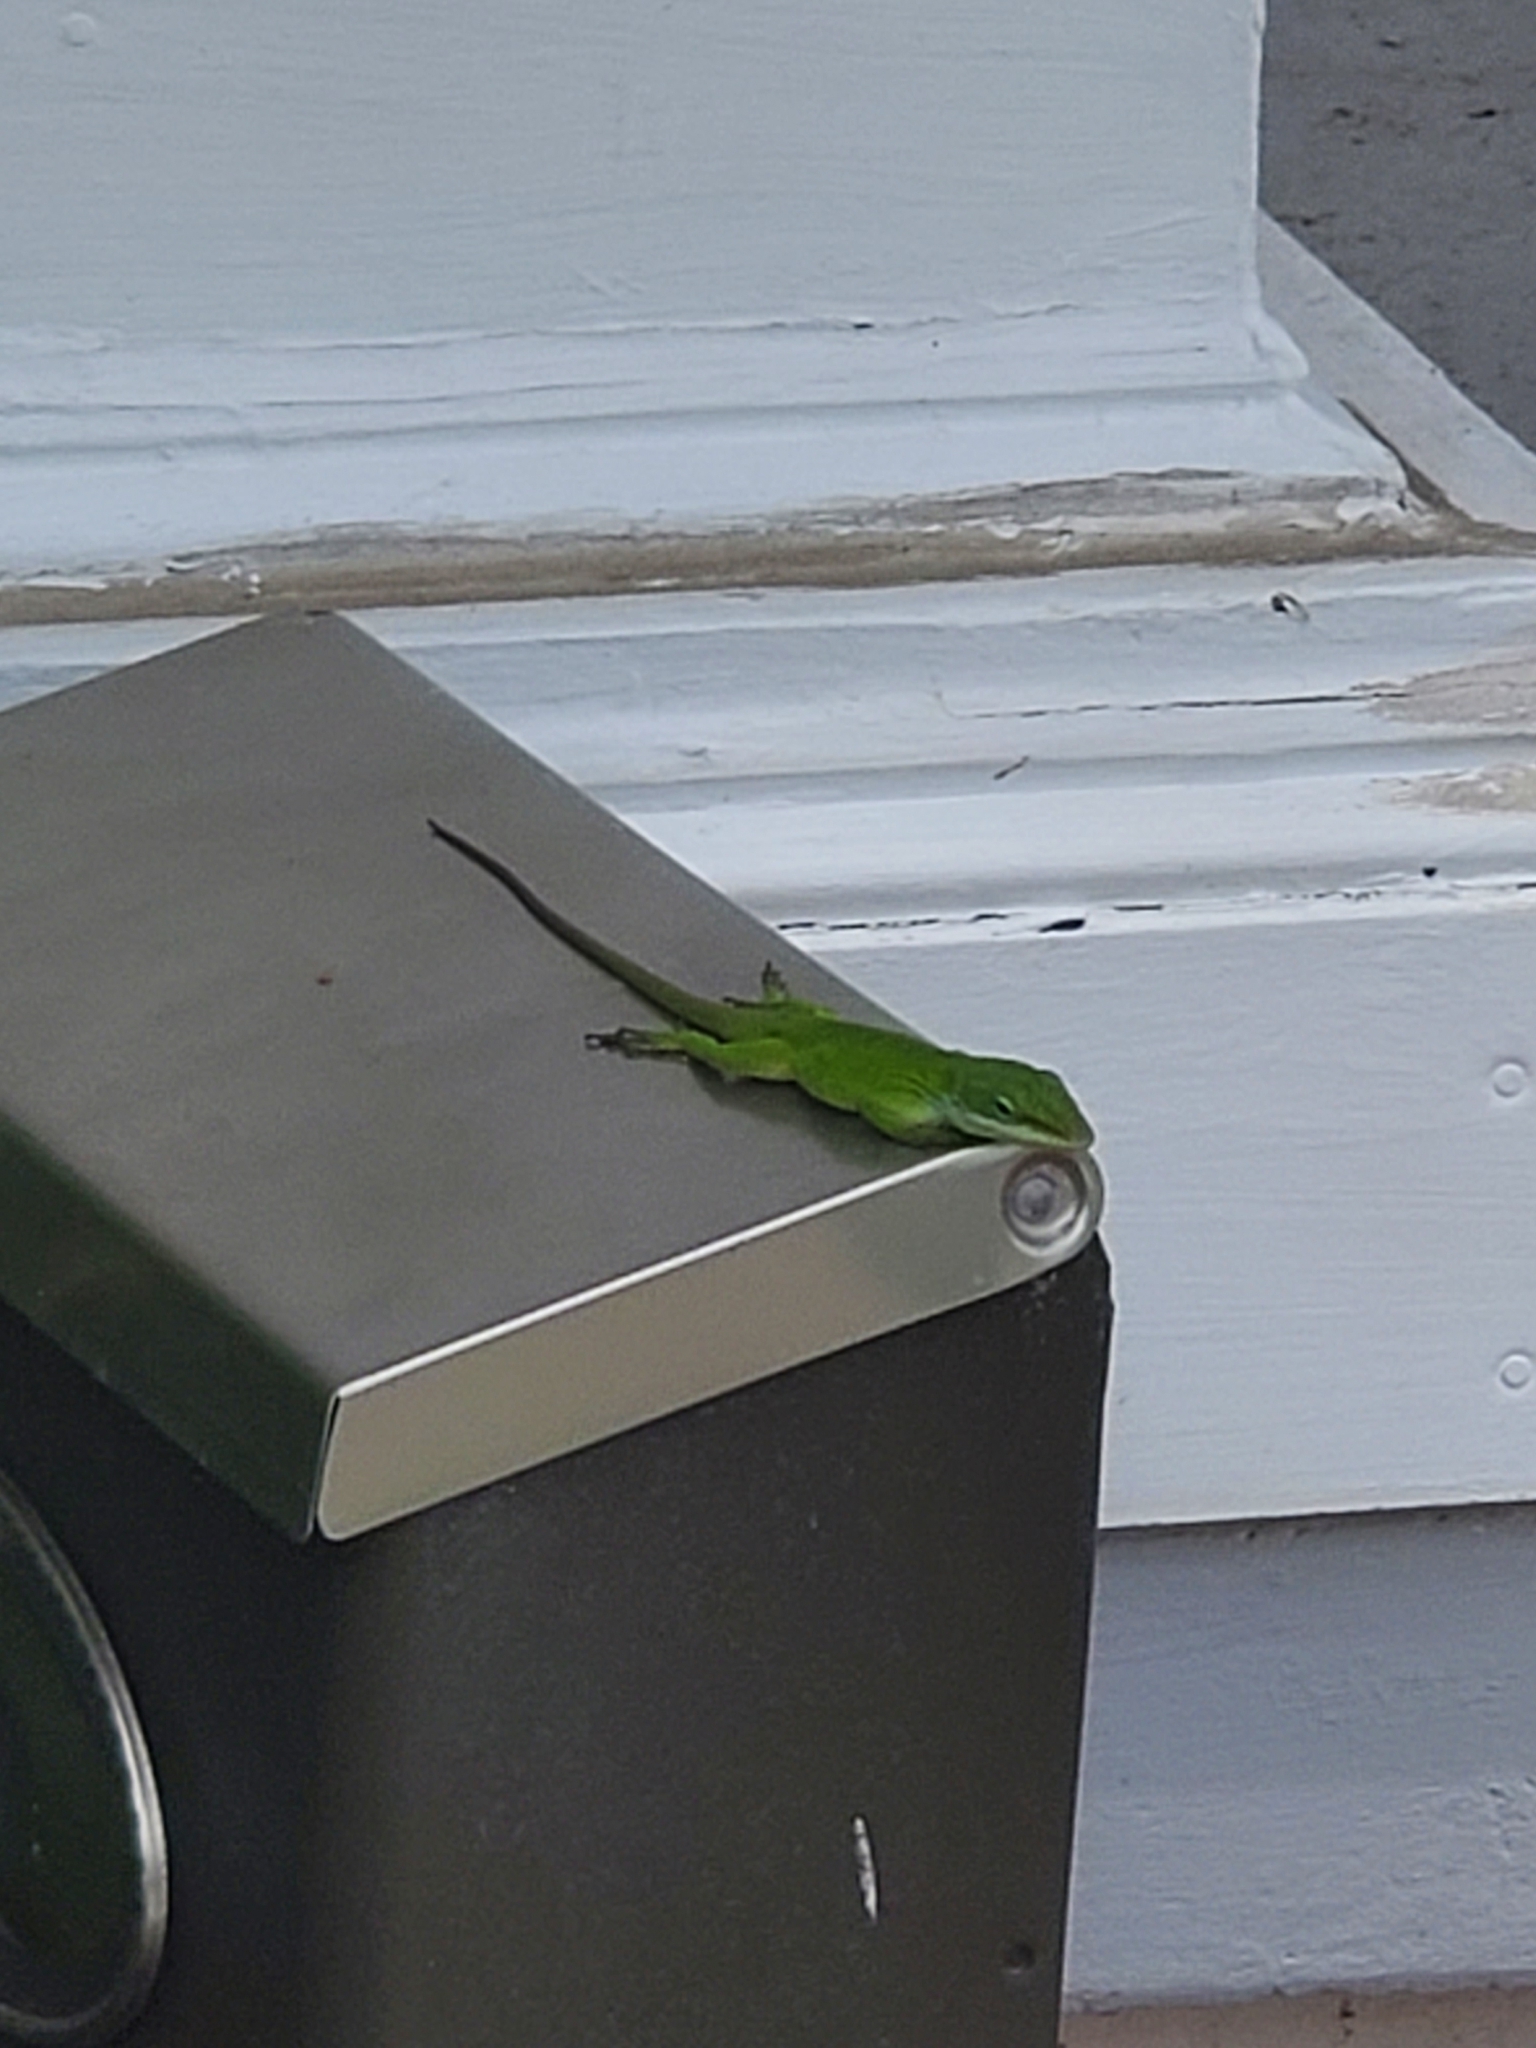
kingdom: Animalia
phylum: Chordata
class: Squamata
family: Dactyloidae
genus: Anolis
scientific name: Anolis carolinensis
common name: Green anole
